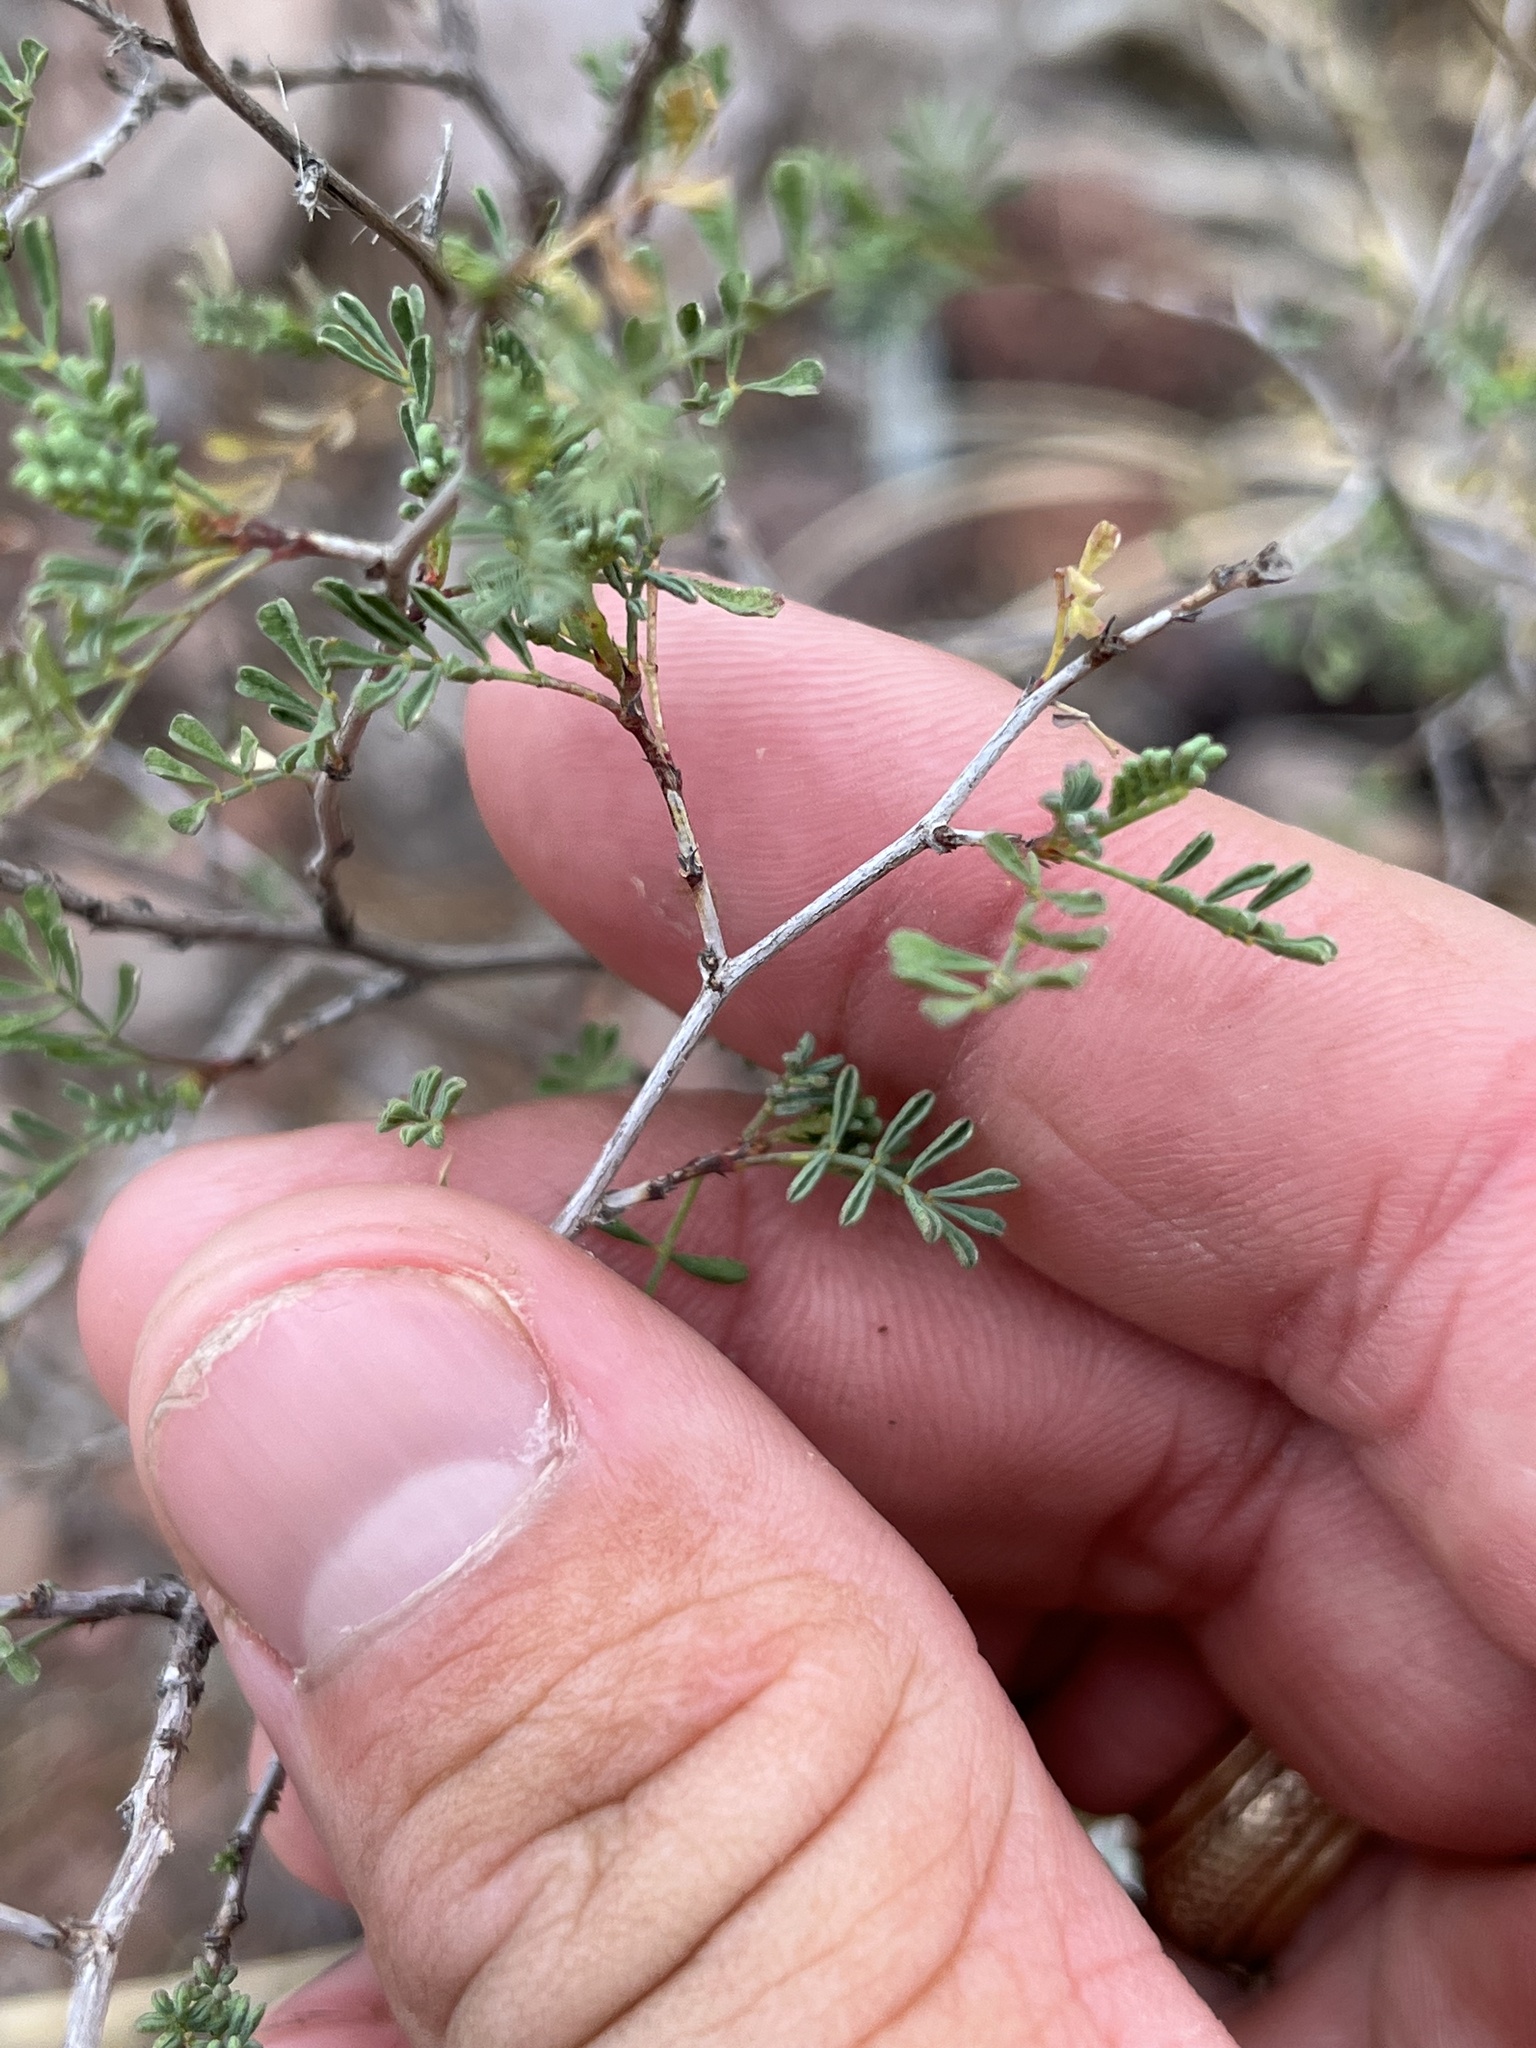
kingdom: Plantae
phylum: Tracheophyta
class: Magnoliopsida
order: Fabales
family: Fabaceae
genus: Dalea
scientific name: Dalea formosa
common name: Feather-plume dalea
